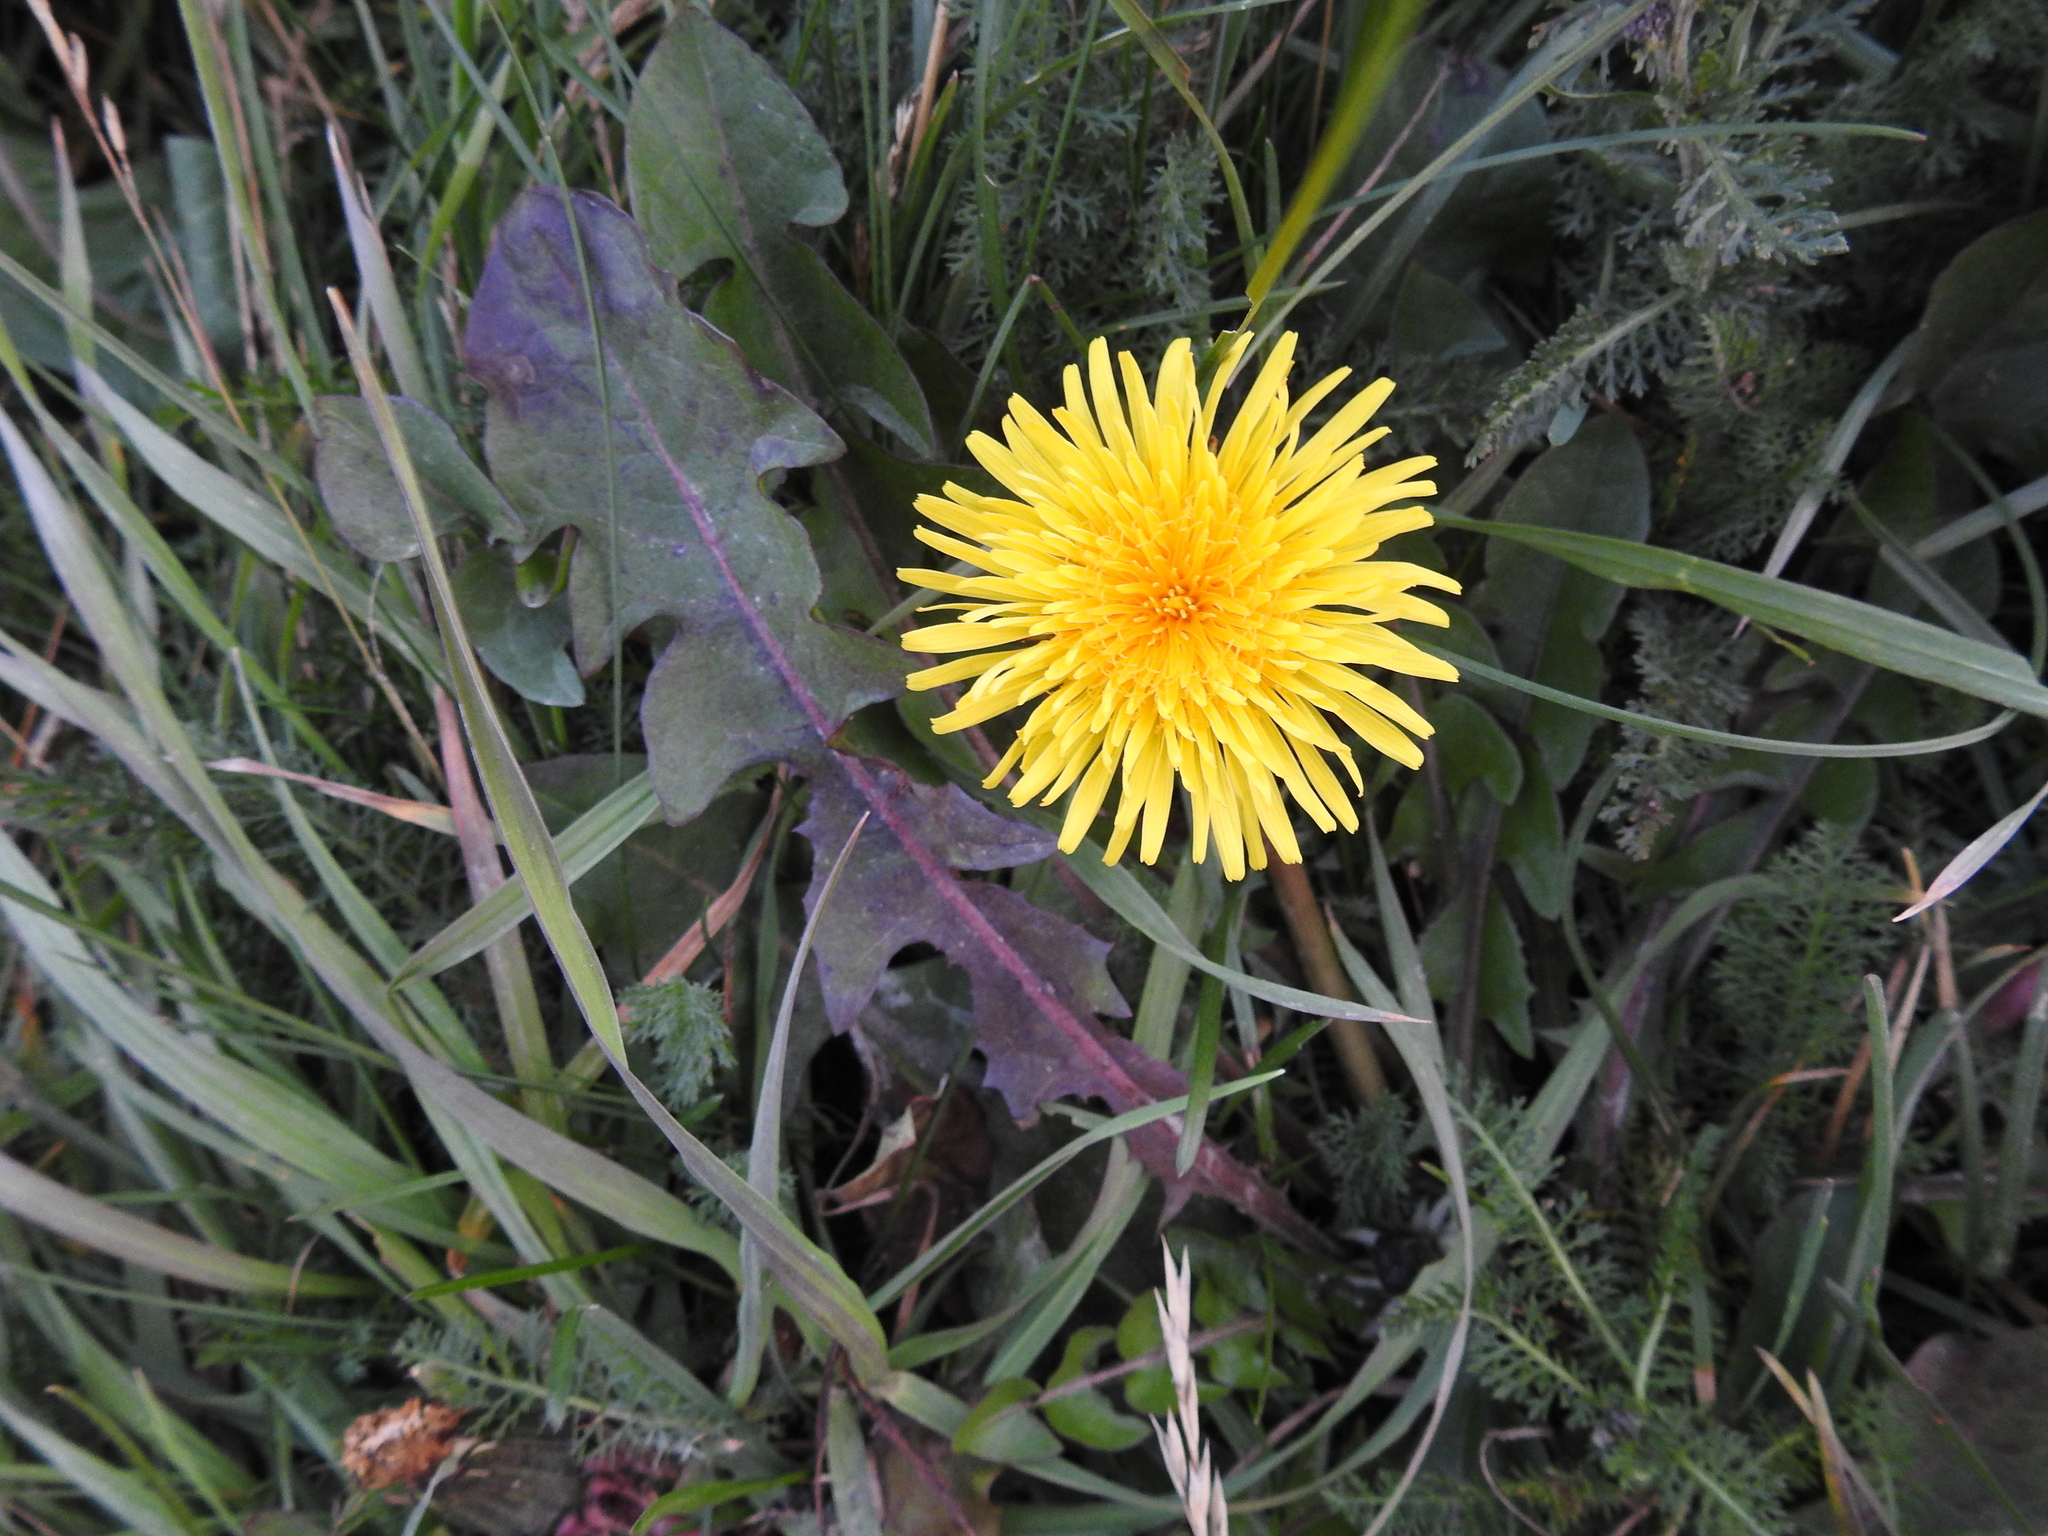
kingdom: Plantae
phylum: Tracheophyta
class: Magnoliopsida
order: Asterales
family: Asteraceae
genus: Taraxacum
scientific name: Taraxacum officinale
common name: Common dandelion
